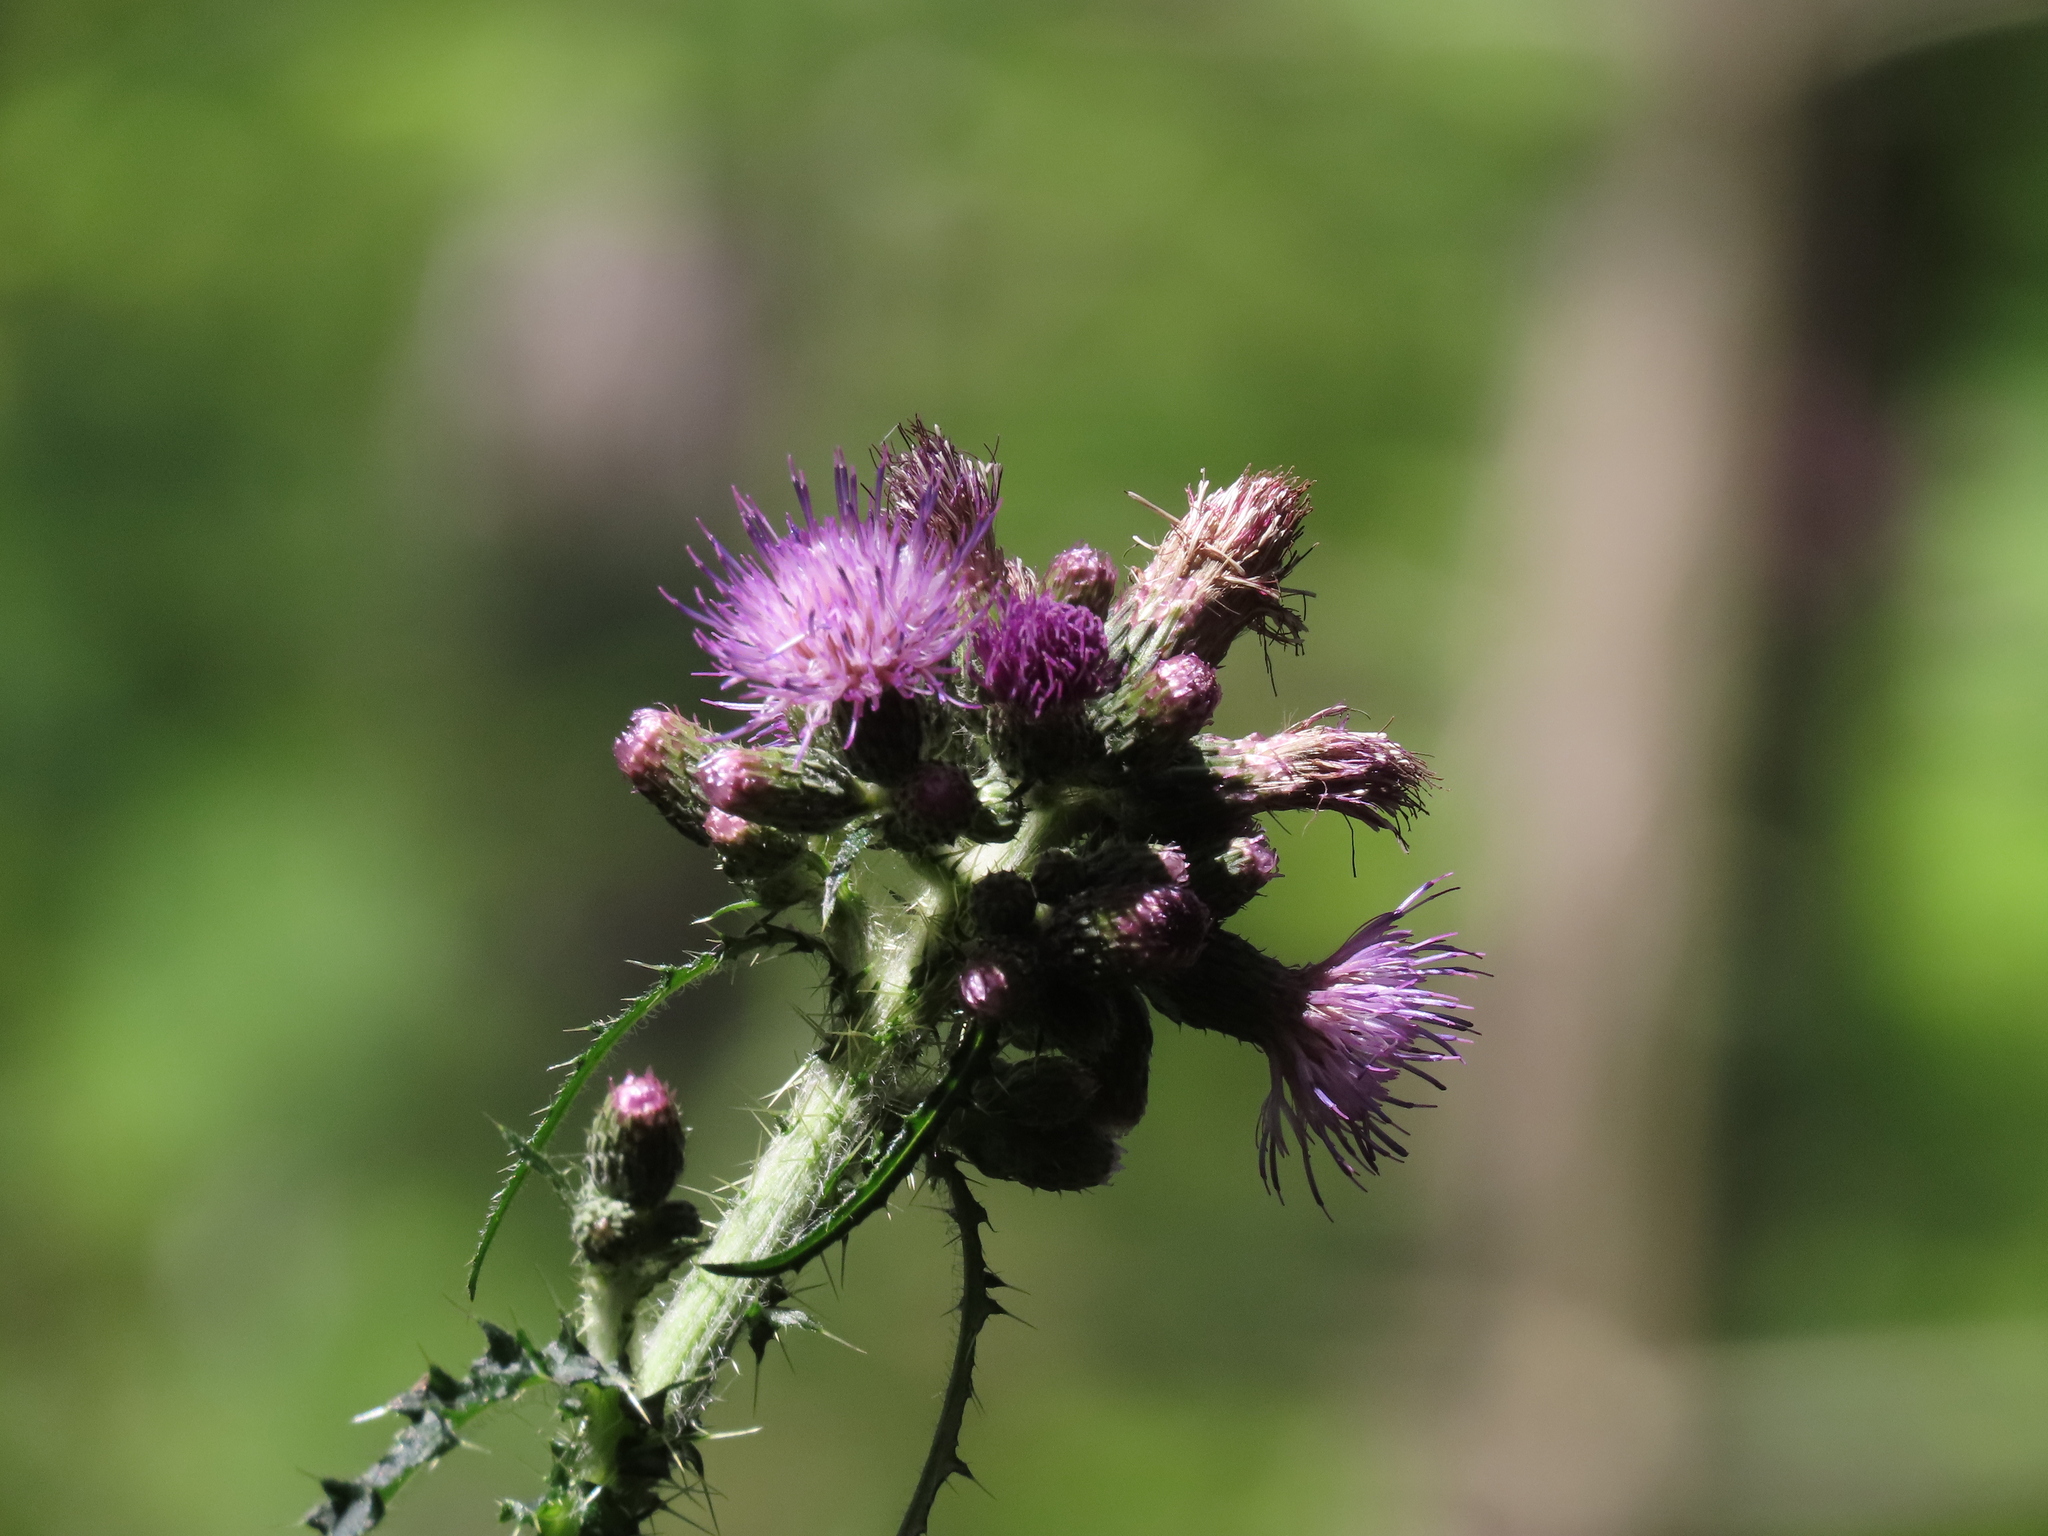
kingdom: Plantae
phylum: Tracheophyta
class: Magnoliopsida
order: Asterales
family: Asteraceae
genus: Cirsium
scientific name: Cirsium palustre
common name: Marsh thistle
